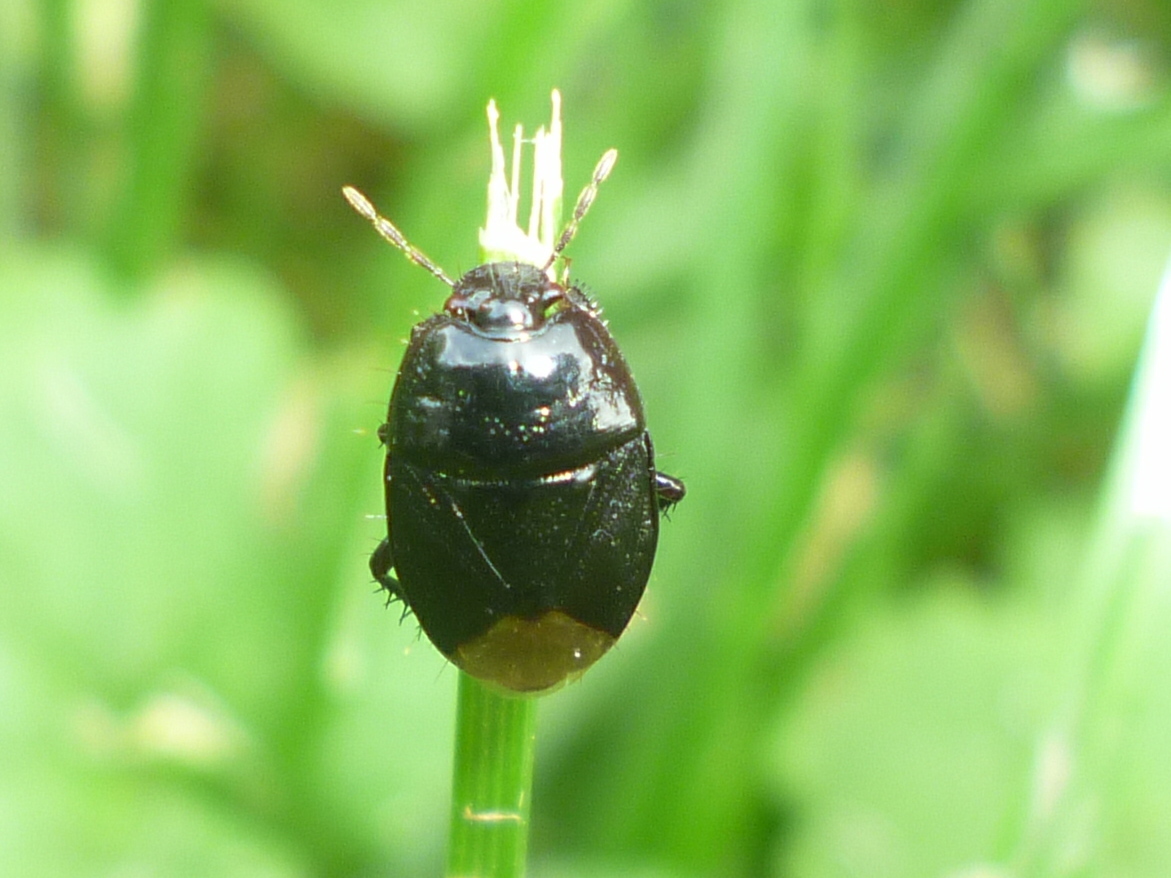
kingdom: Animalia
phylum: Arthropoda
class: Insecta
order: Hemiptera
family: Cydnidae
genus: Pangaeus
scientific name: Pangaeus bilineatus
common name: Burrower bug
